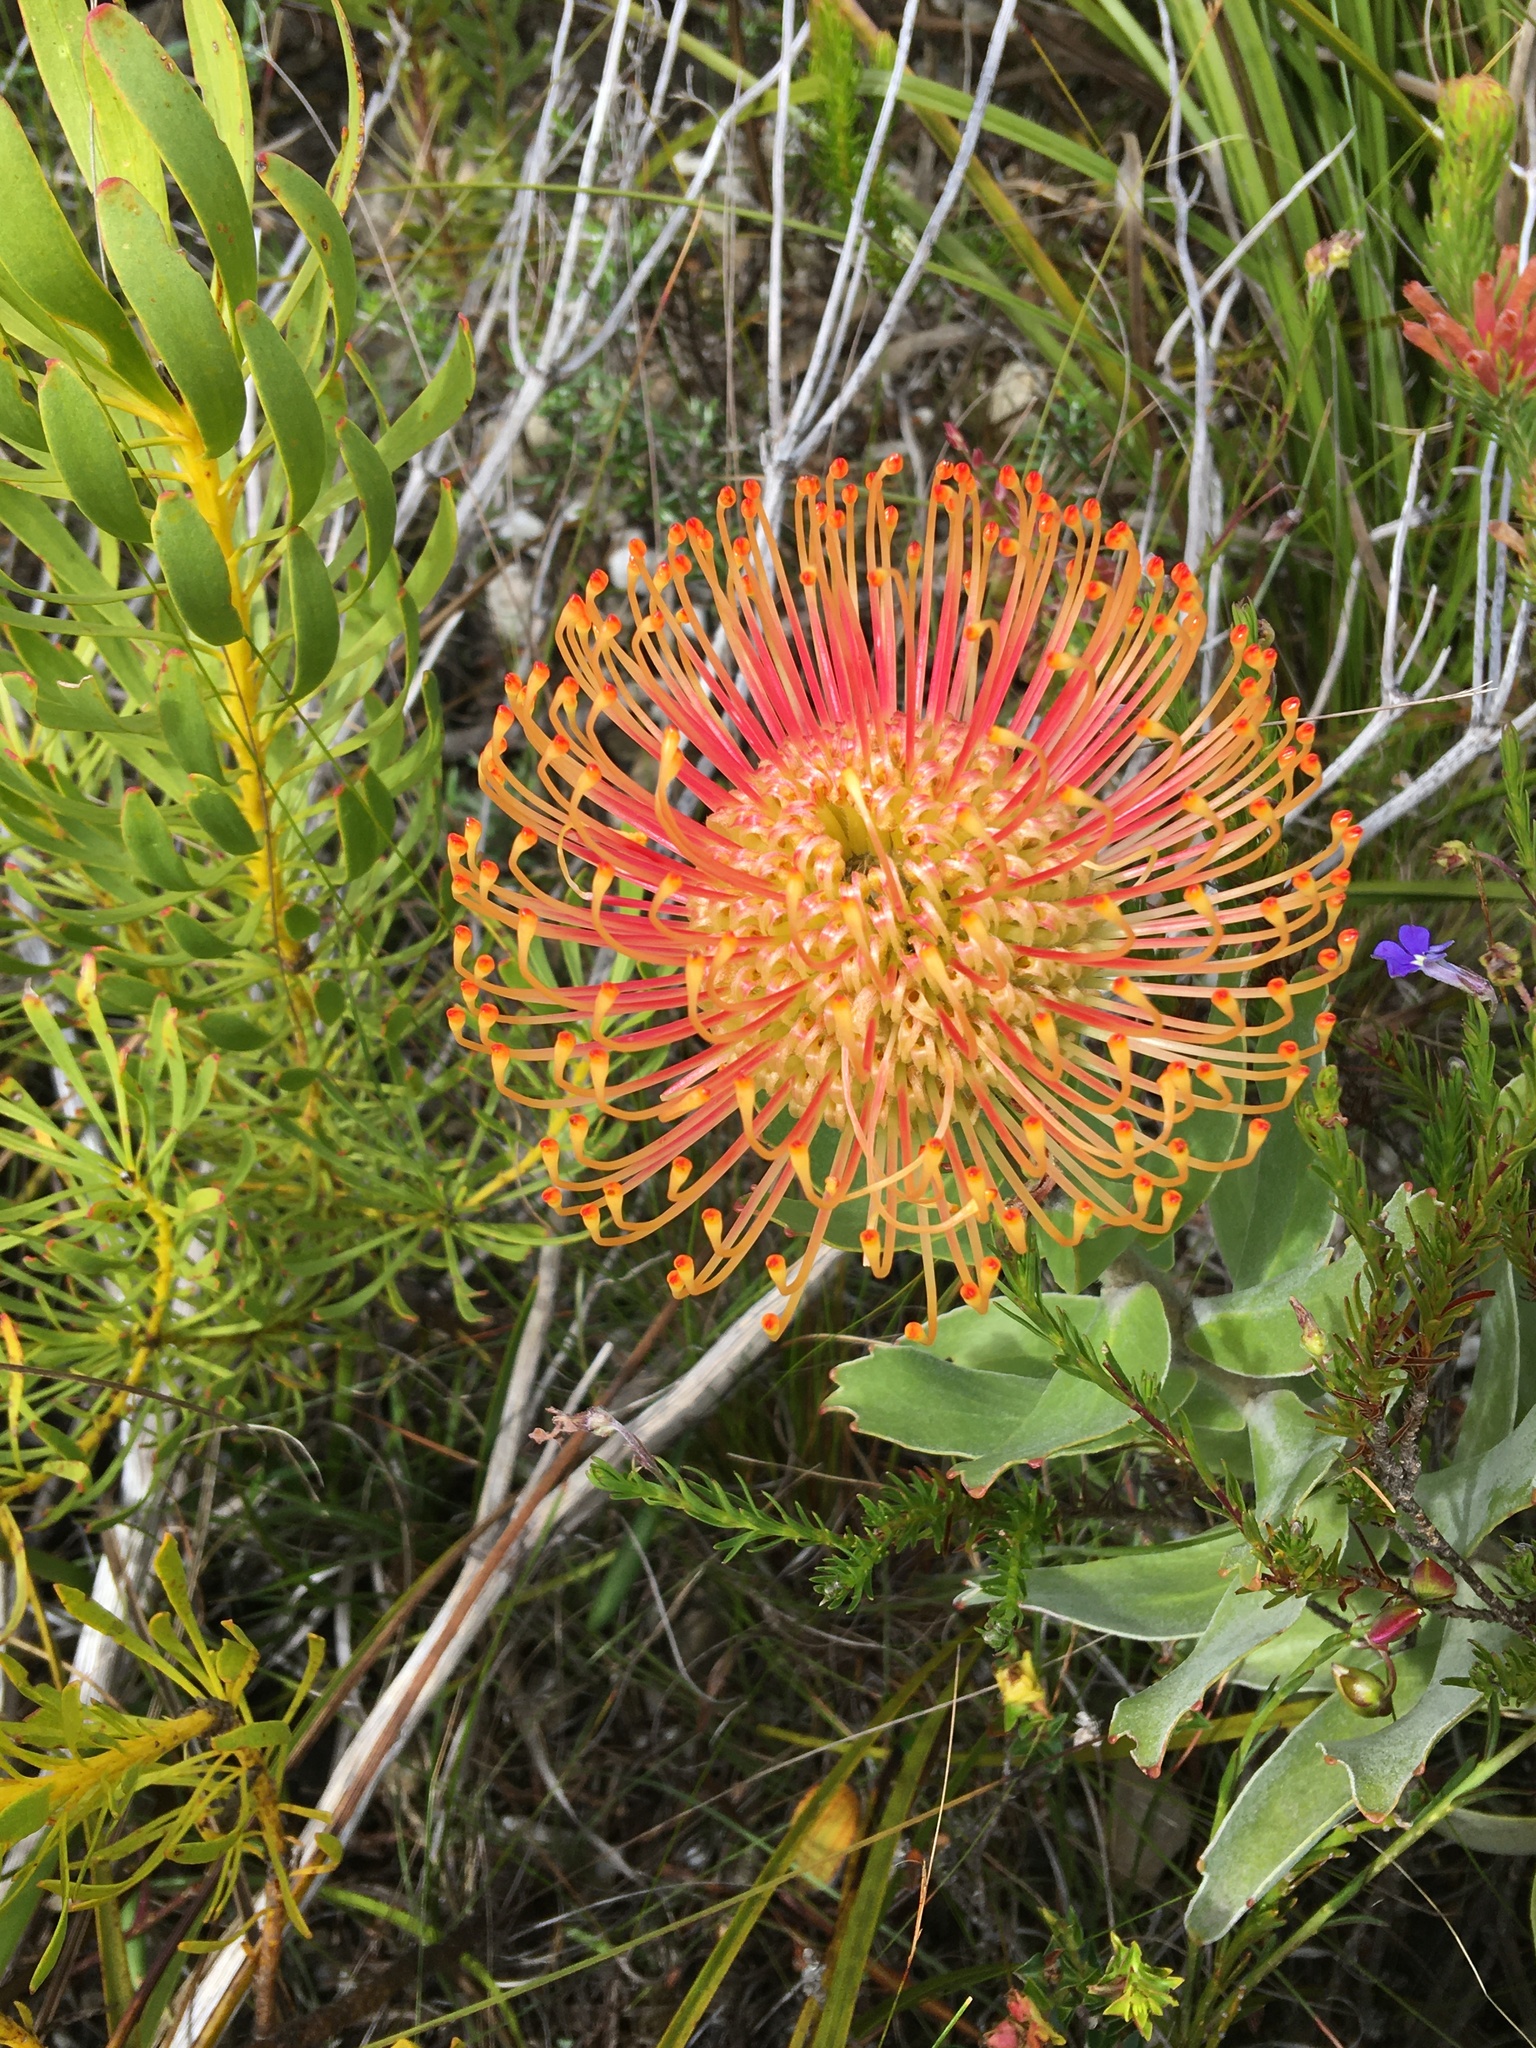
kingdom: Plantae
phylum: Tracheophyta
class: Magnoliopsida
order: Proteales
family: Proteaceae
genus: Leucospermum
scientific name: Leucospermum cordifolium
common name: Red pincushion-protea
